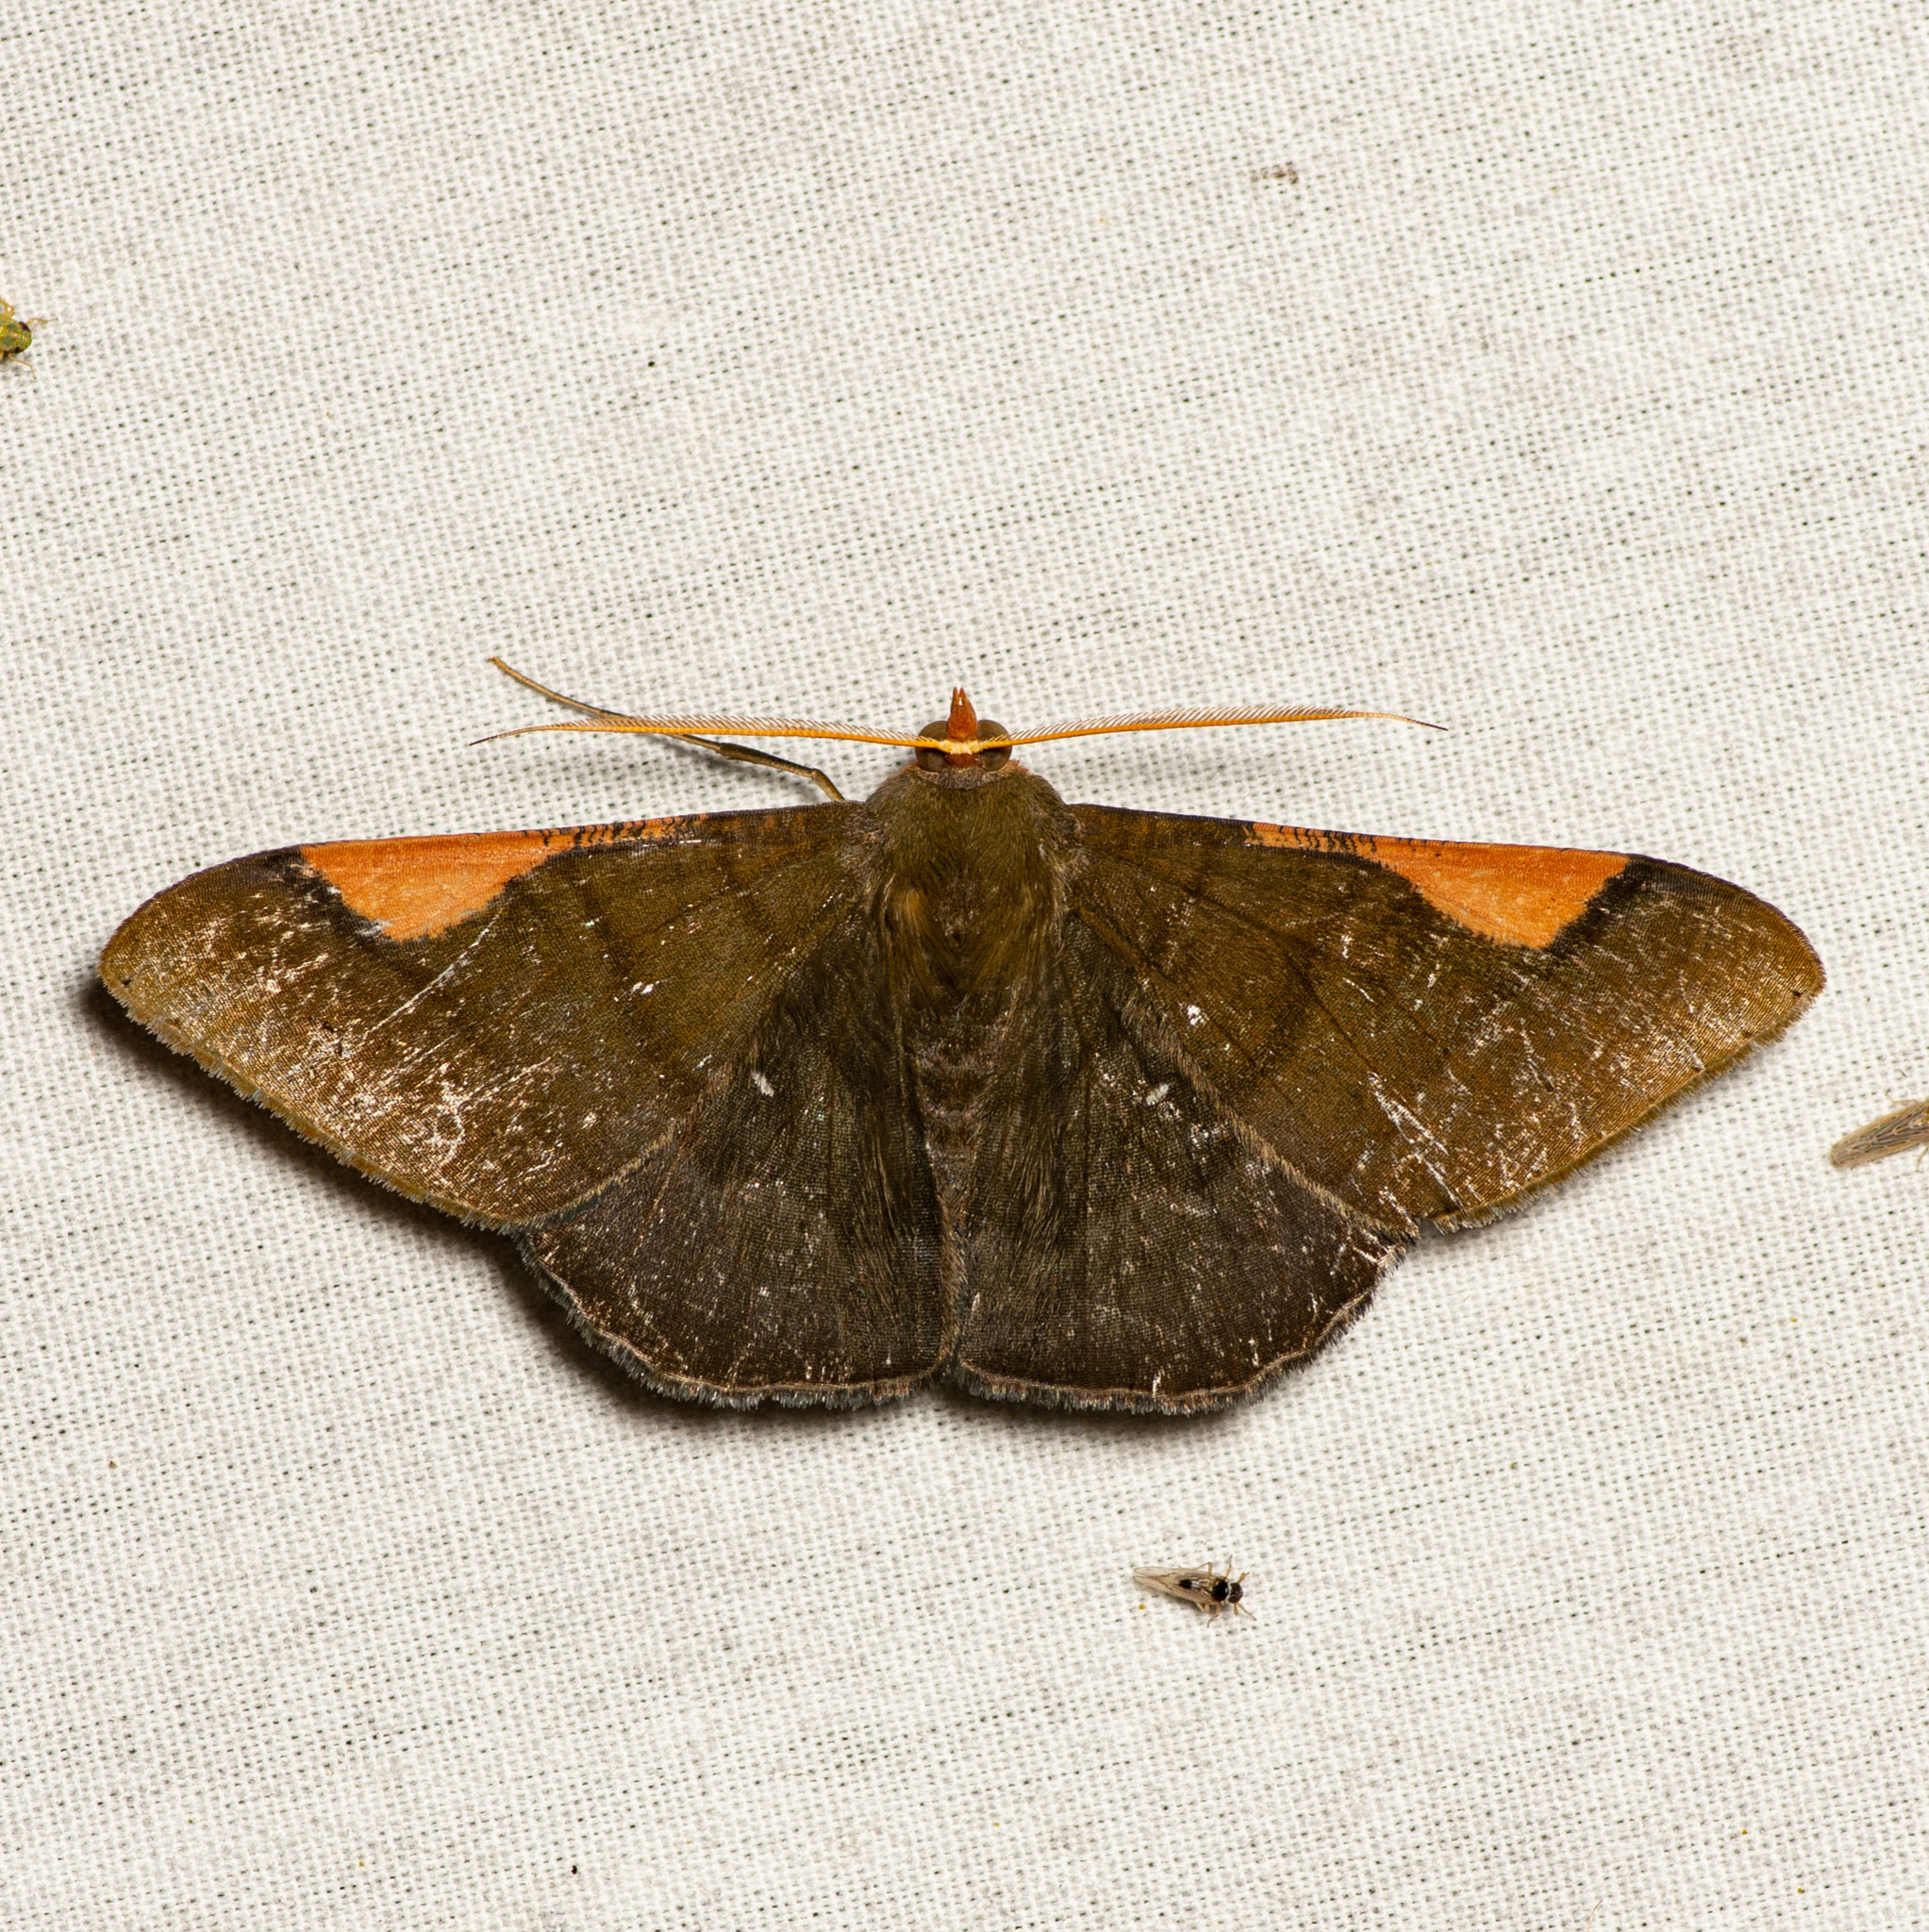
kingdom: Animalia
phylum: Arthropoda
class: Insecta
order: Lepidoptera
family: Geometridae
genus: Sphacelodes
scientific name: Sphacelodes vulneraria
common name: Looper moth
